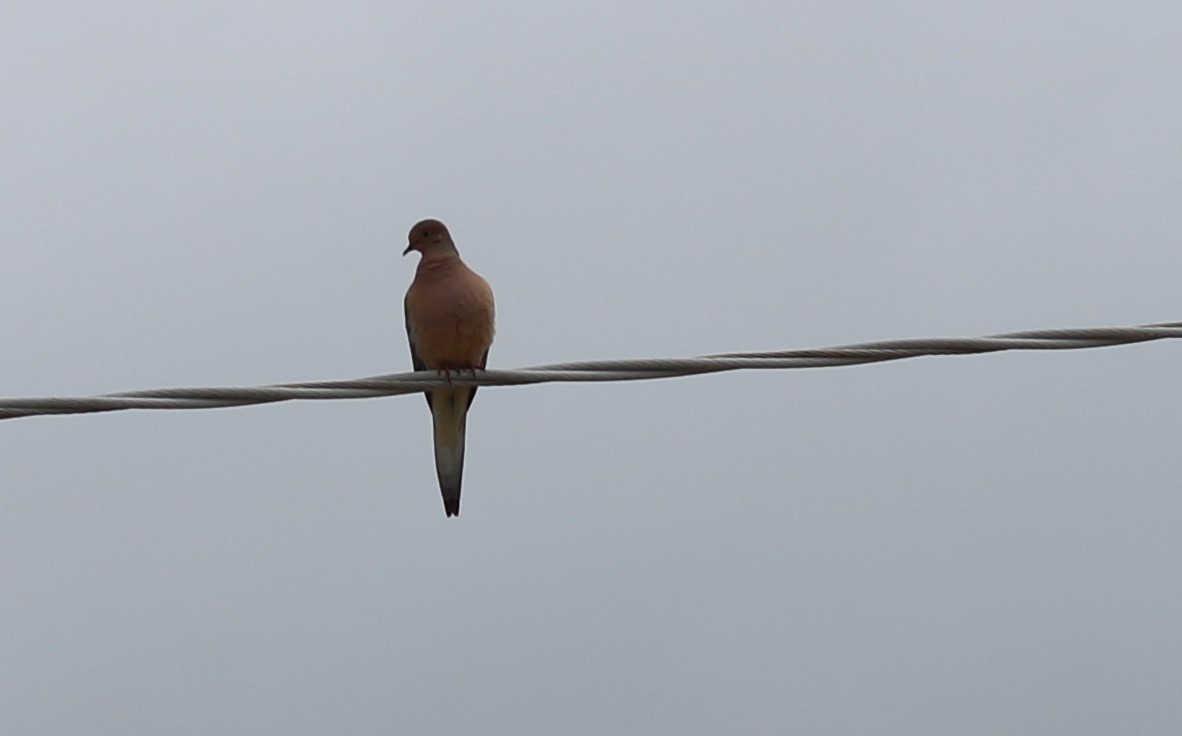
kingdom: Animalia
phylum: Chordata
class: Aves
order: Columbiformes
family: Columbidae
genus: Zenaida
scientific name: Zenaida macroura
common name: Mourning dove
